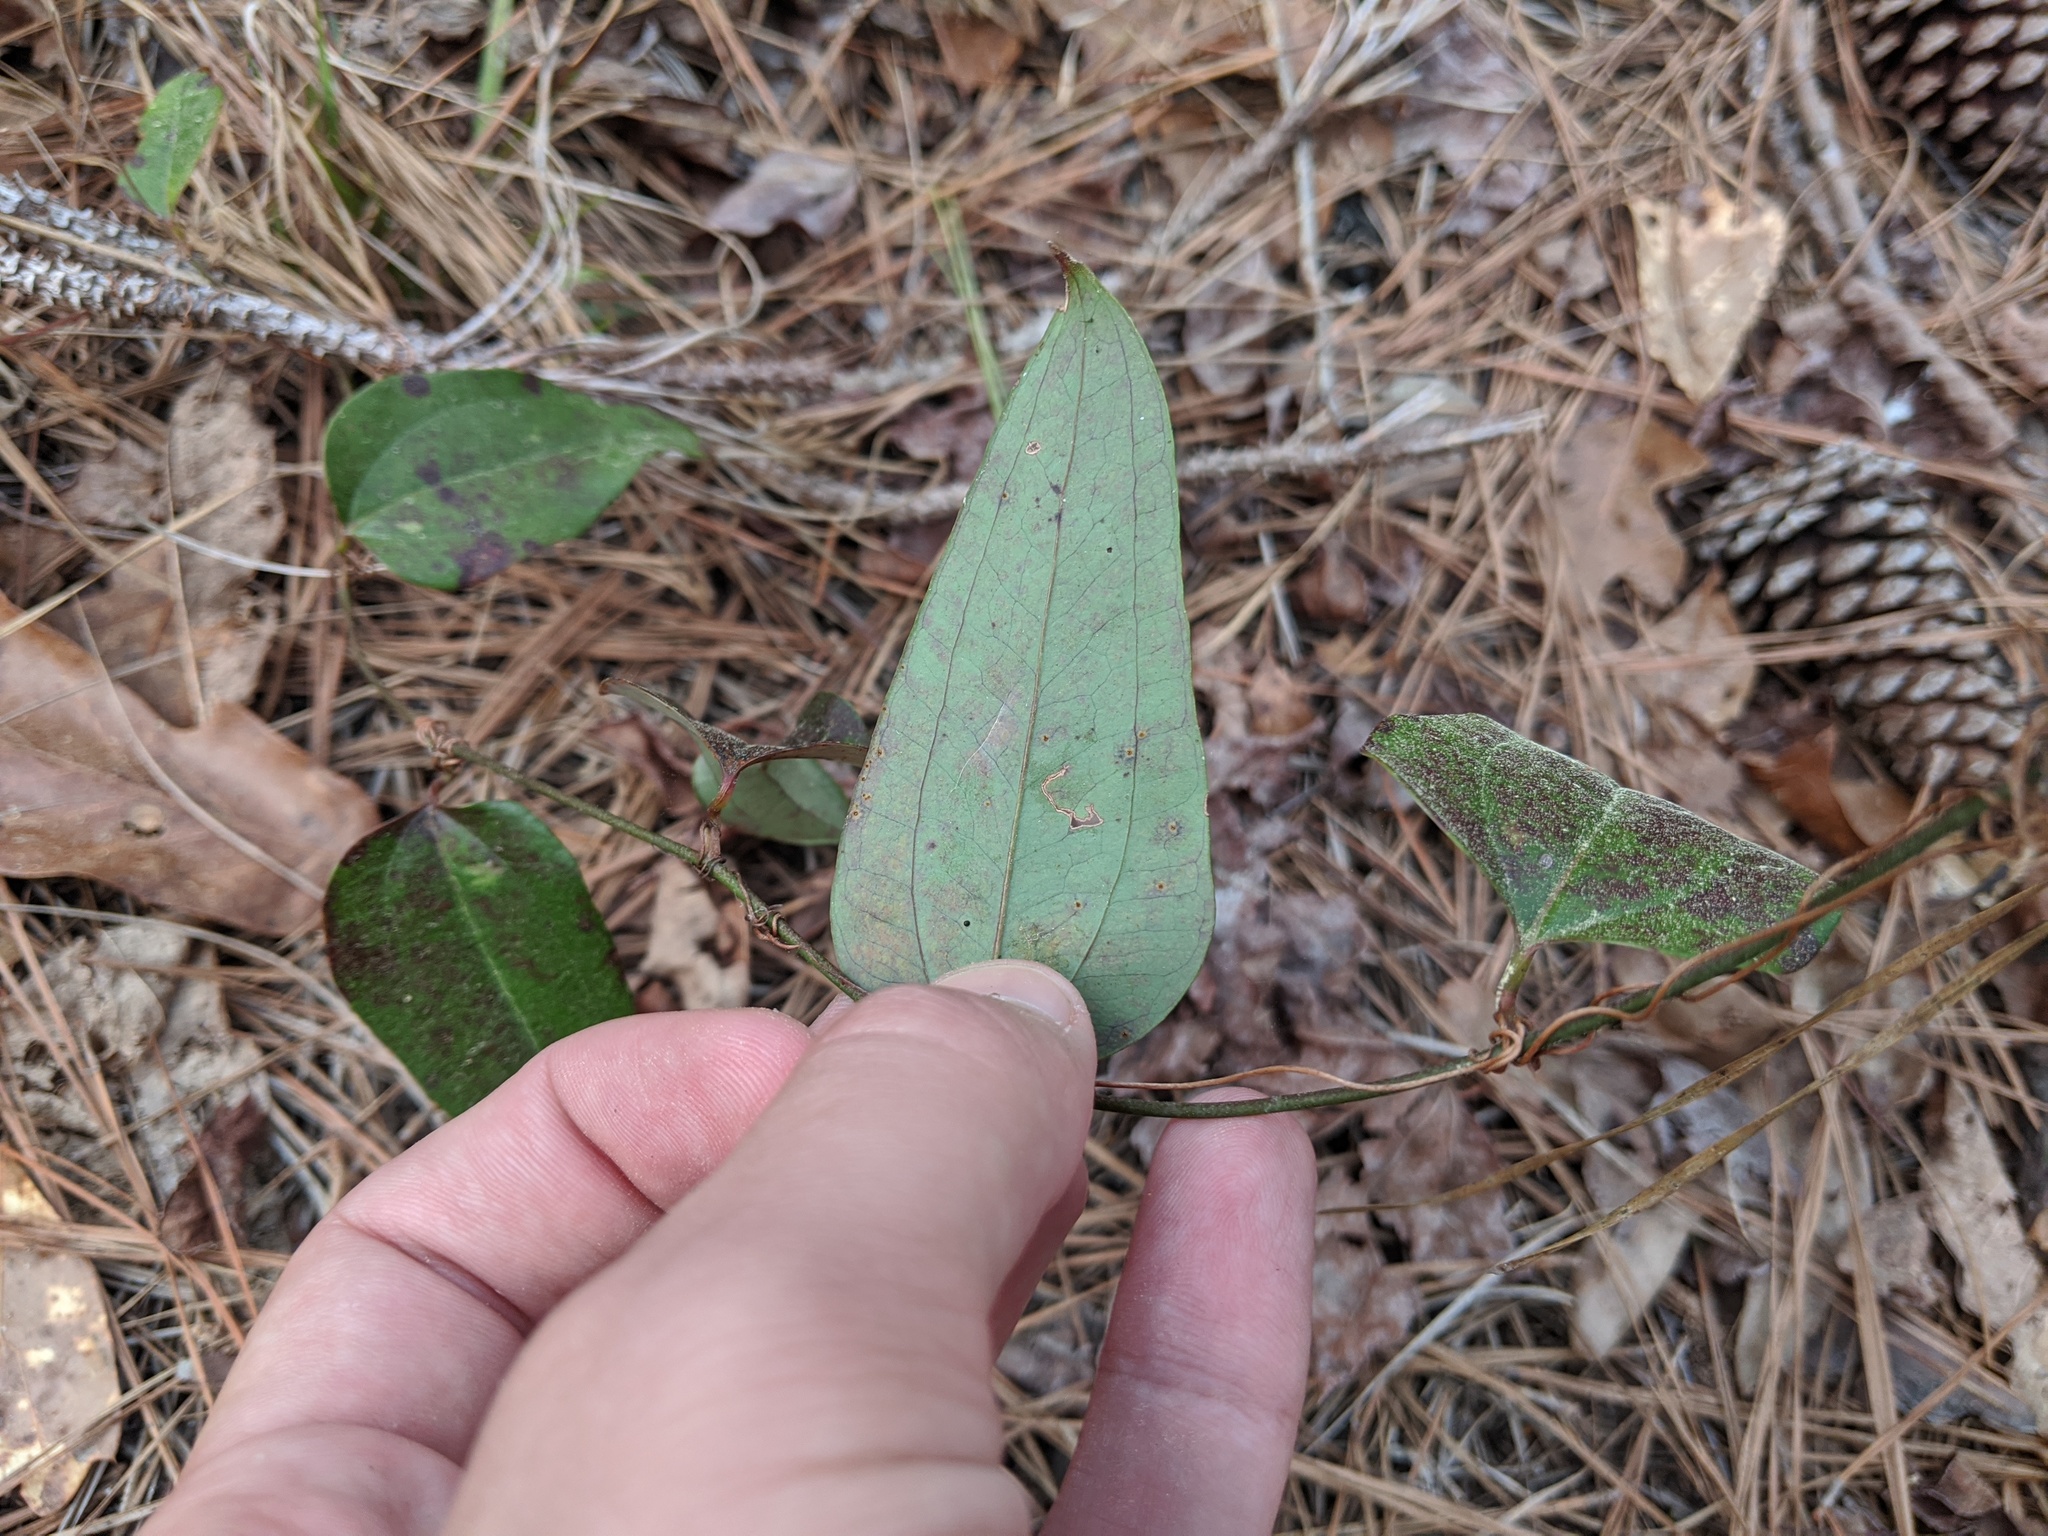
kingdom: Plantae
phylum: Tracheophyta
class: Liliopsida
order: Liliales
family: Smilacaceae
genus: Smilax
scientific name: Smilax glauca
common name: Cat greenbrier
